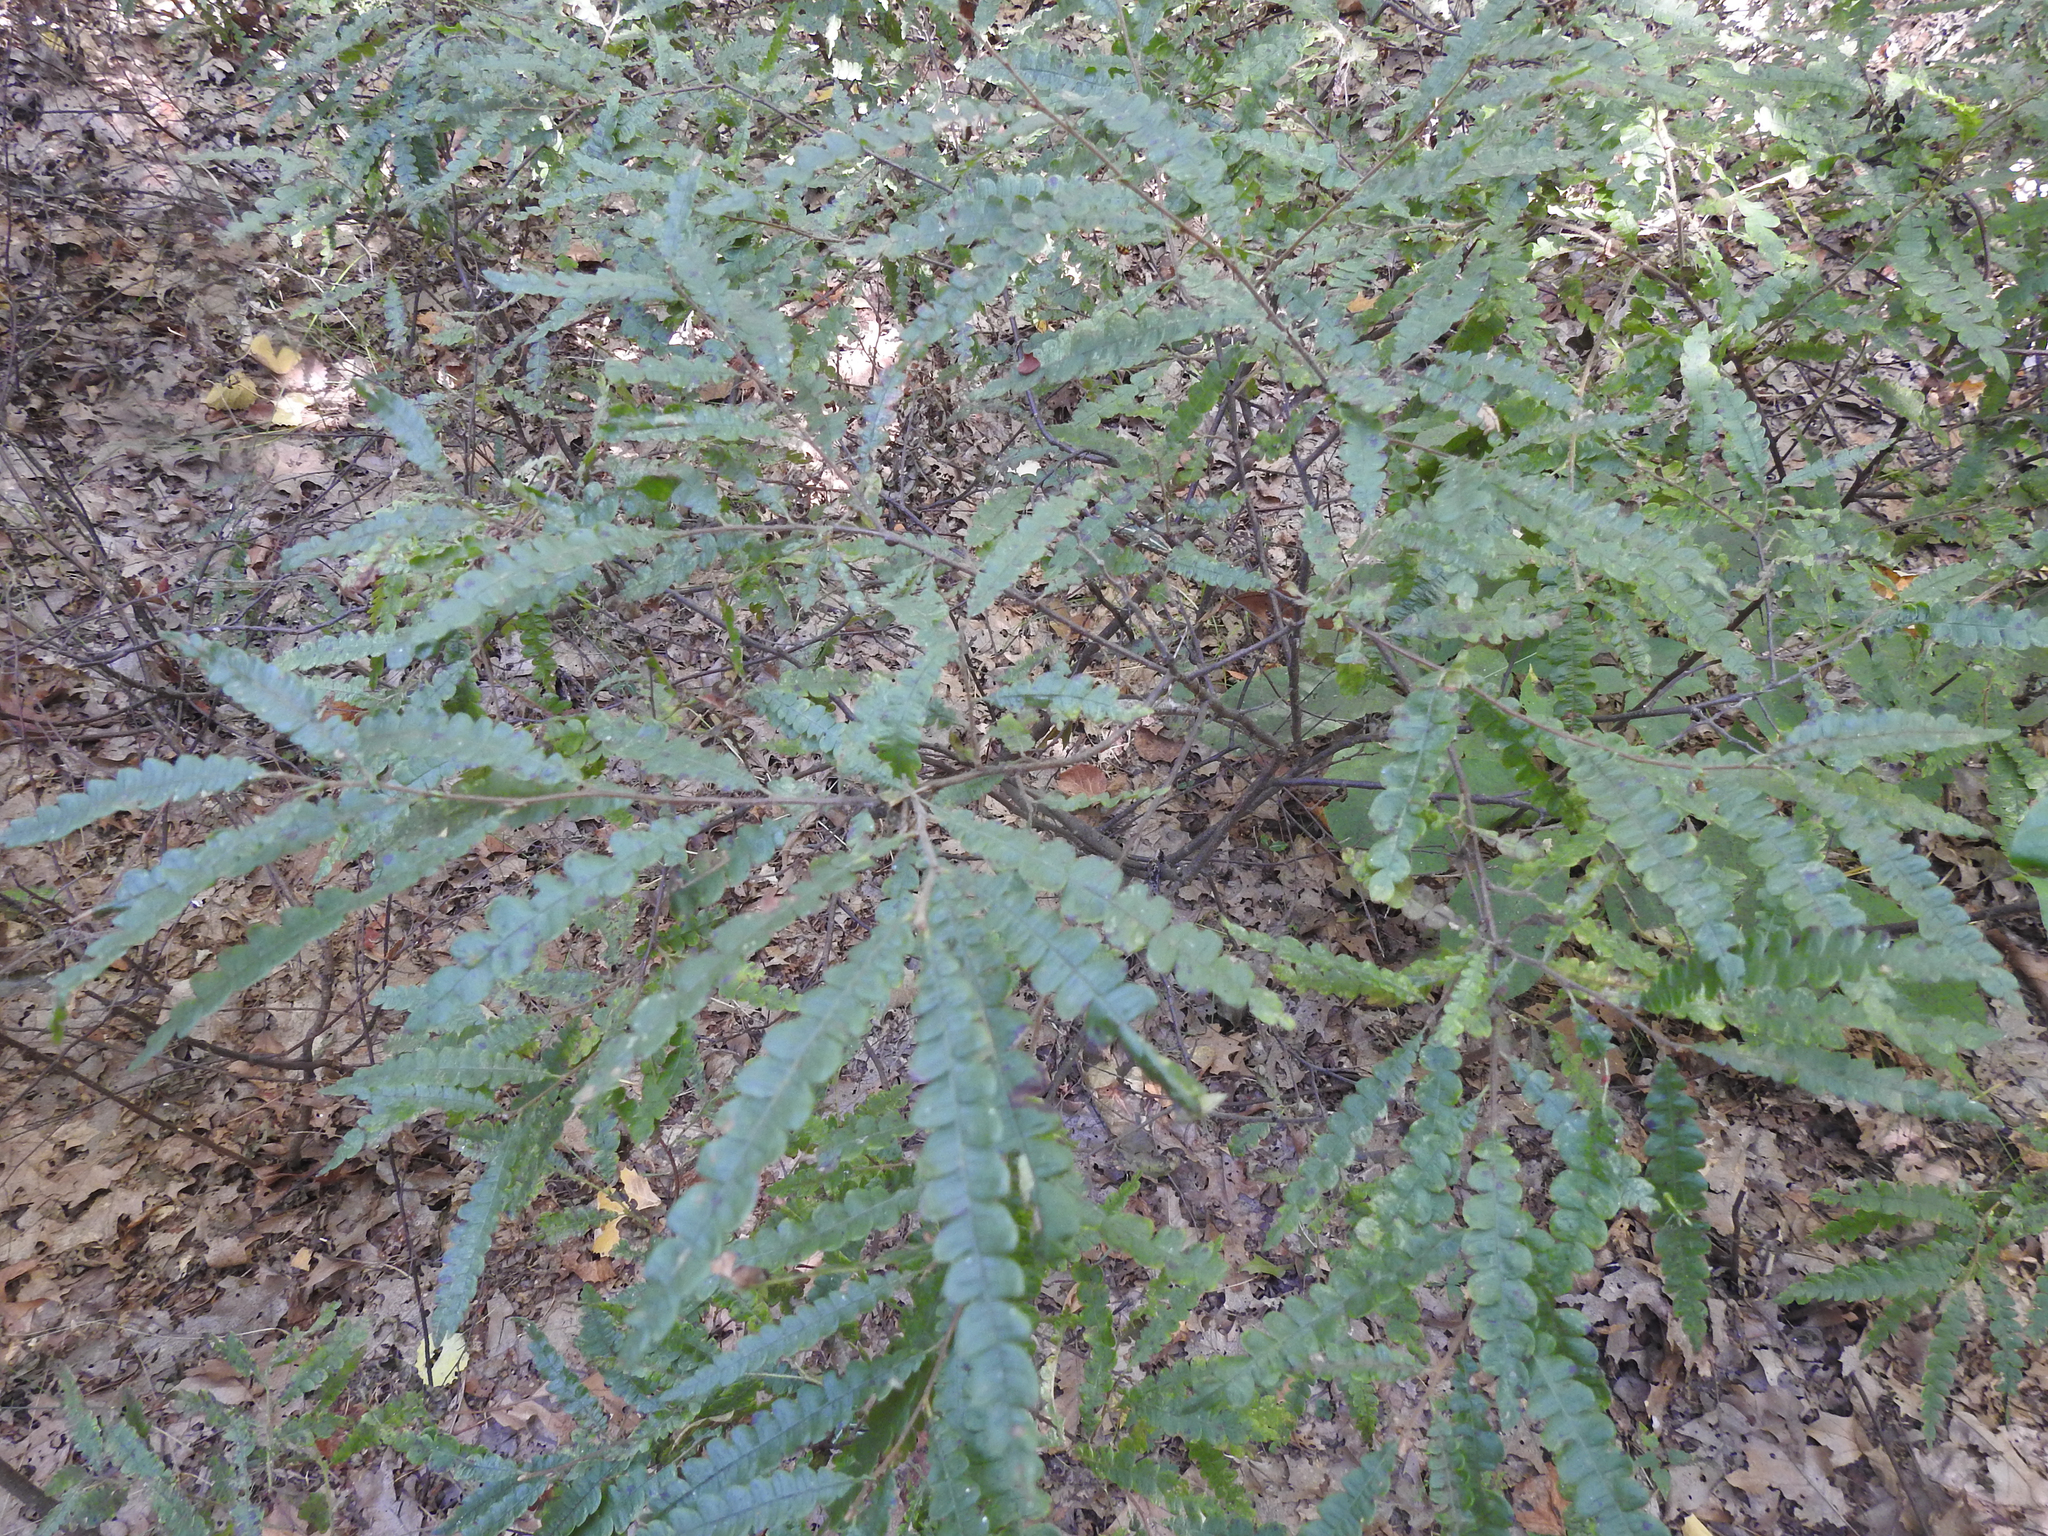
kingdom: Plantae
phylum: Tracheophyta
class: Magnoliopsida
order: Fagales
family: Myricaceae
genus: Comptonia
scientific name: Comptonia peregrina
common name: Sweet-fern
